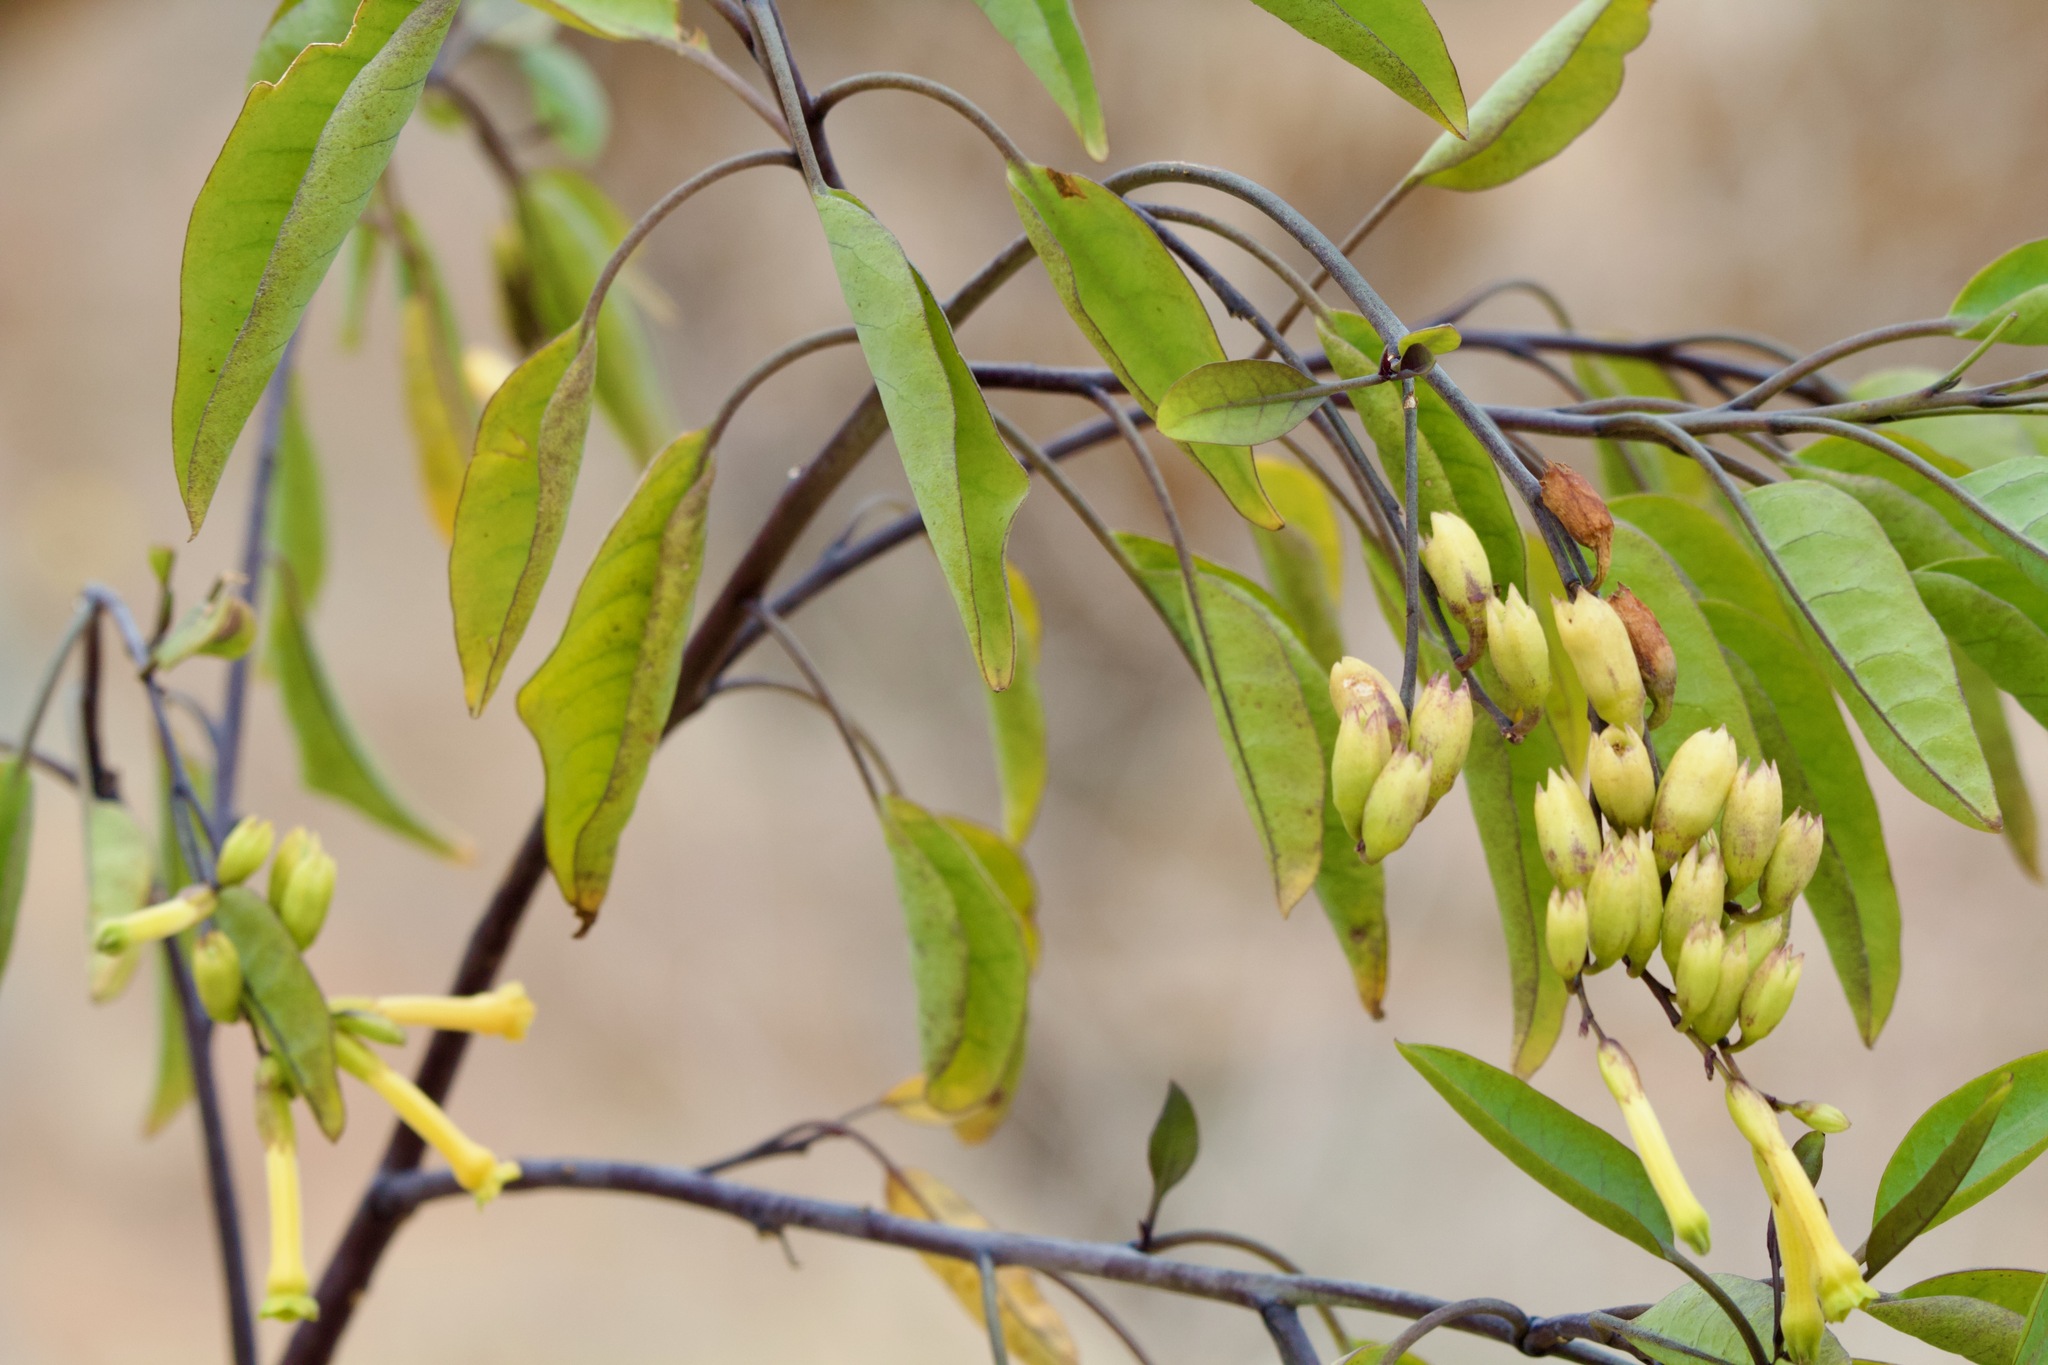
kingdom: Plantae
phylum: Tracheophyta
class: Magnoliopsida
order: Solanales
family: Solanaceae
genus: Nicotiana
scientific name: Nicotiana glauca
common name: Tree tobacco
